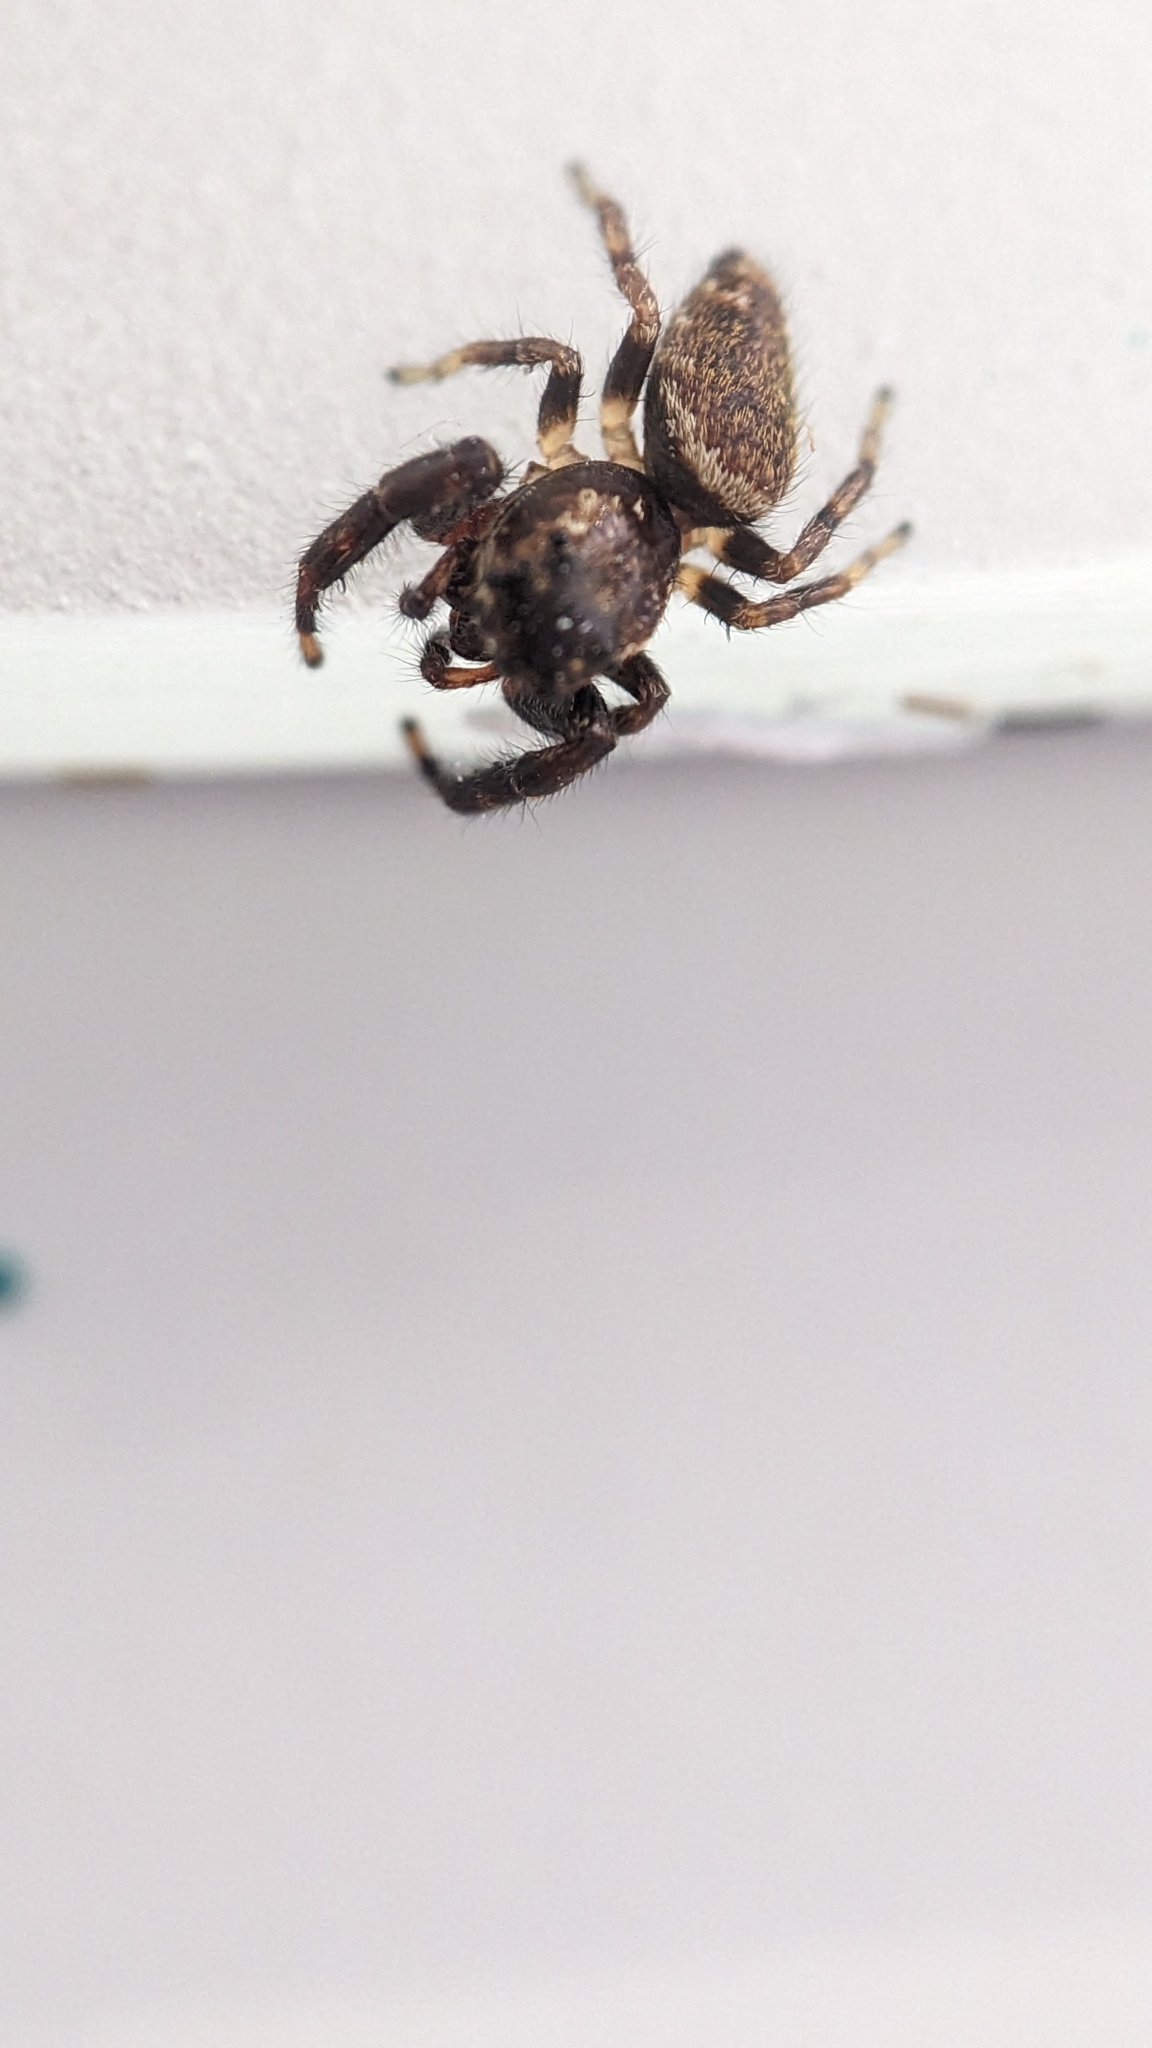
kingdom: Animalia
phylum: Arthropoda
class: Arachnida
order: Araneae
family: Salticidae
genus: Macaroeris
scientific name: Macaroeris nidicolens
